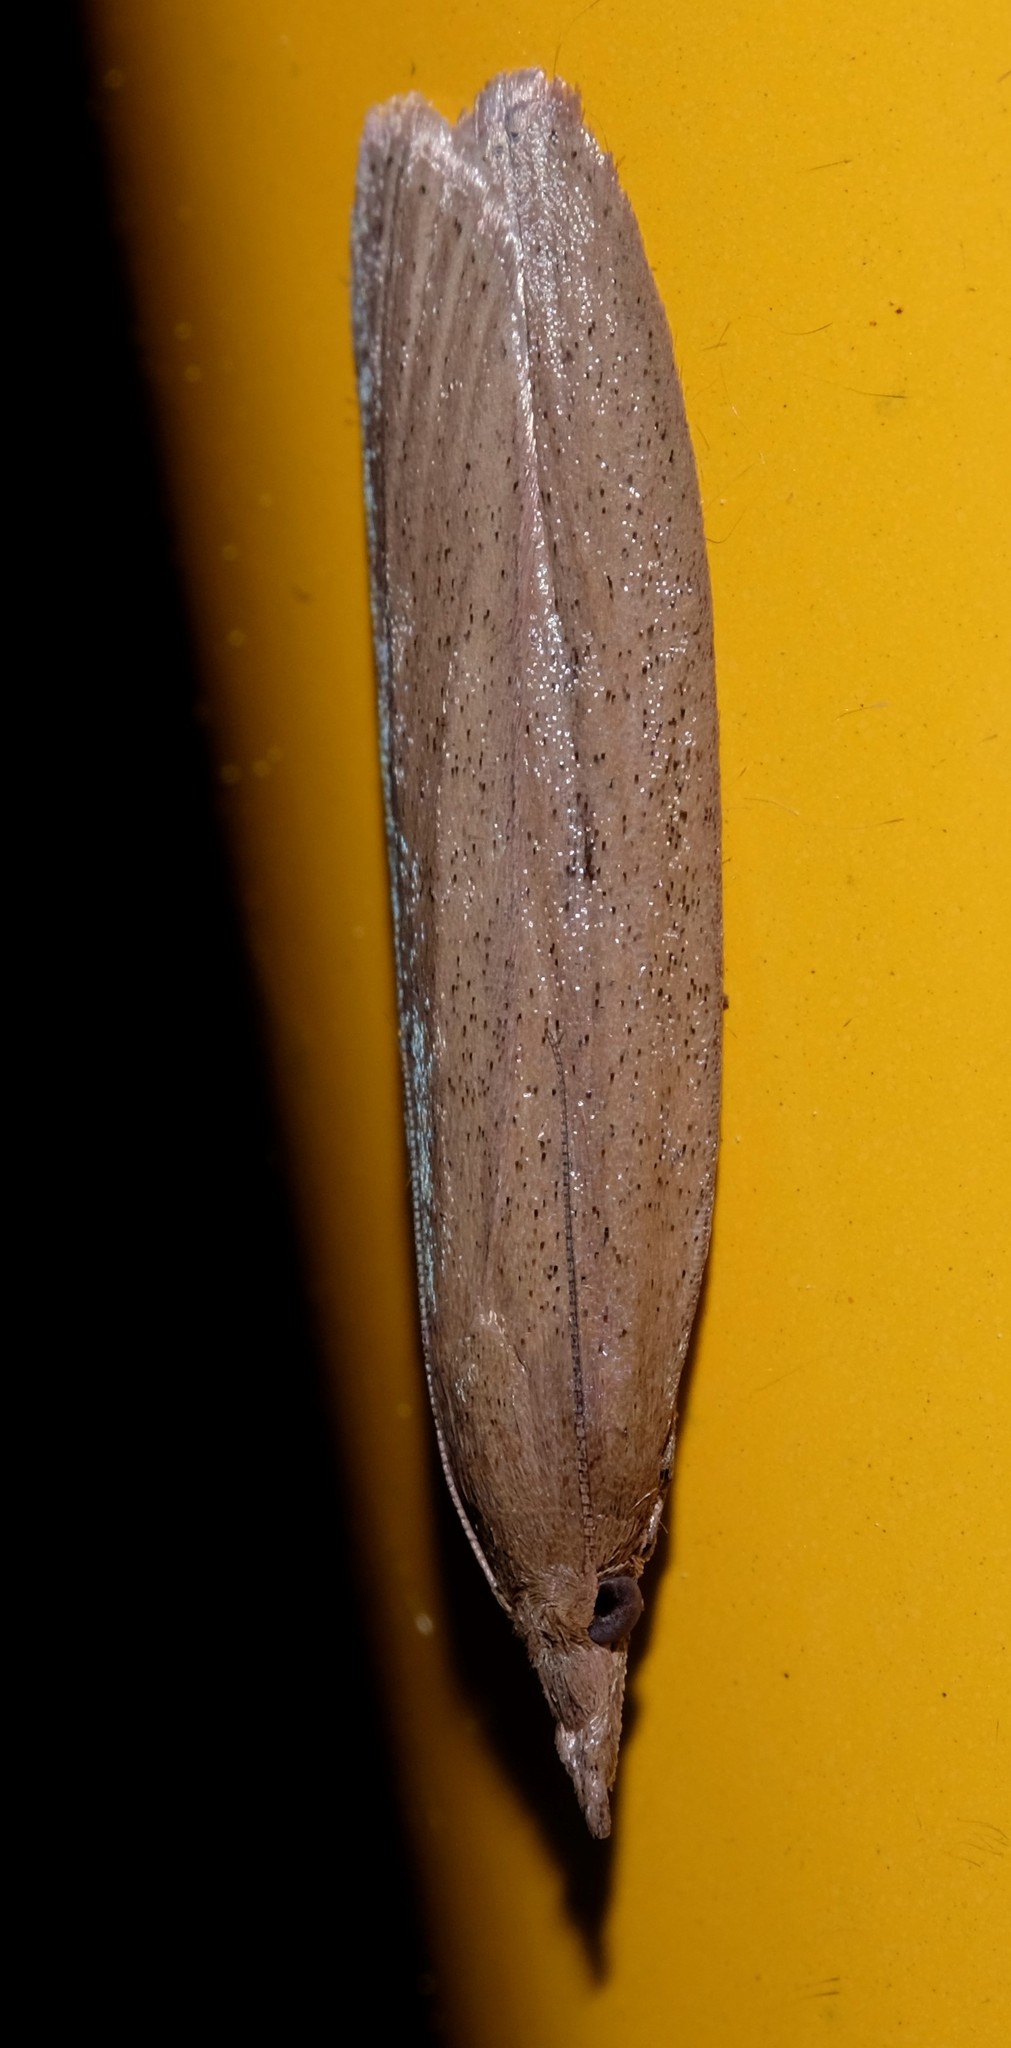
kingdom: Animalia
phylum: Arthropoda
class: Insecta
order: Lepidoptera
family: Pyralidae
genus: Meyriccia
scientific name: Meyriccia latro
